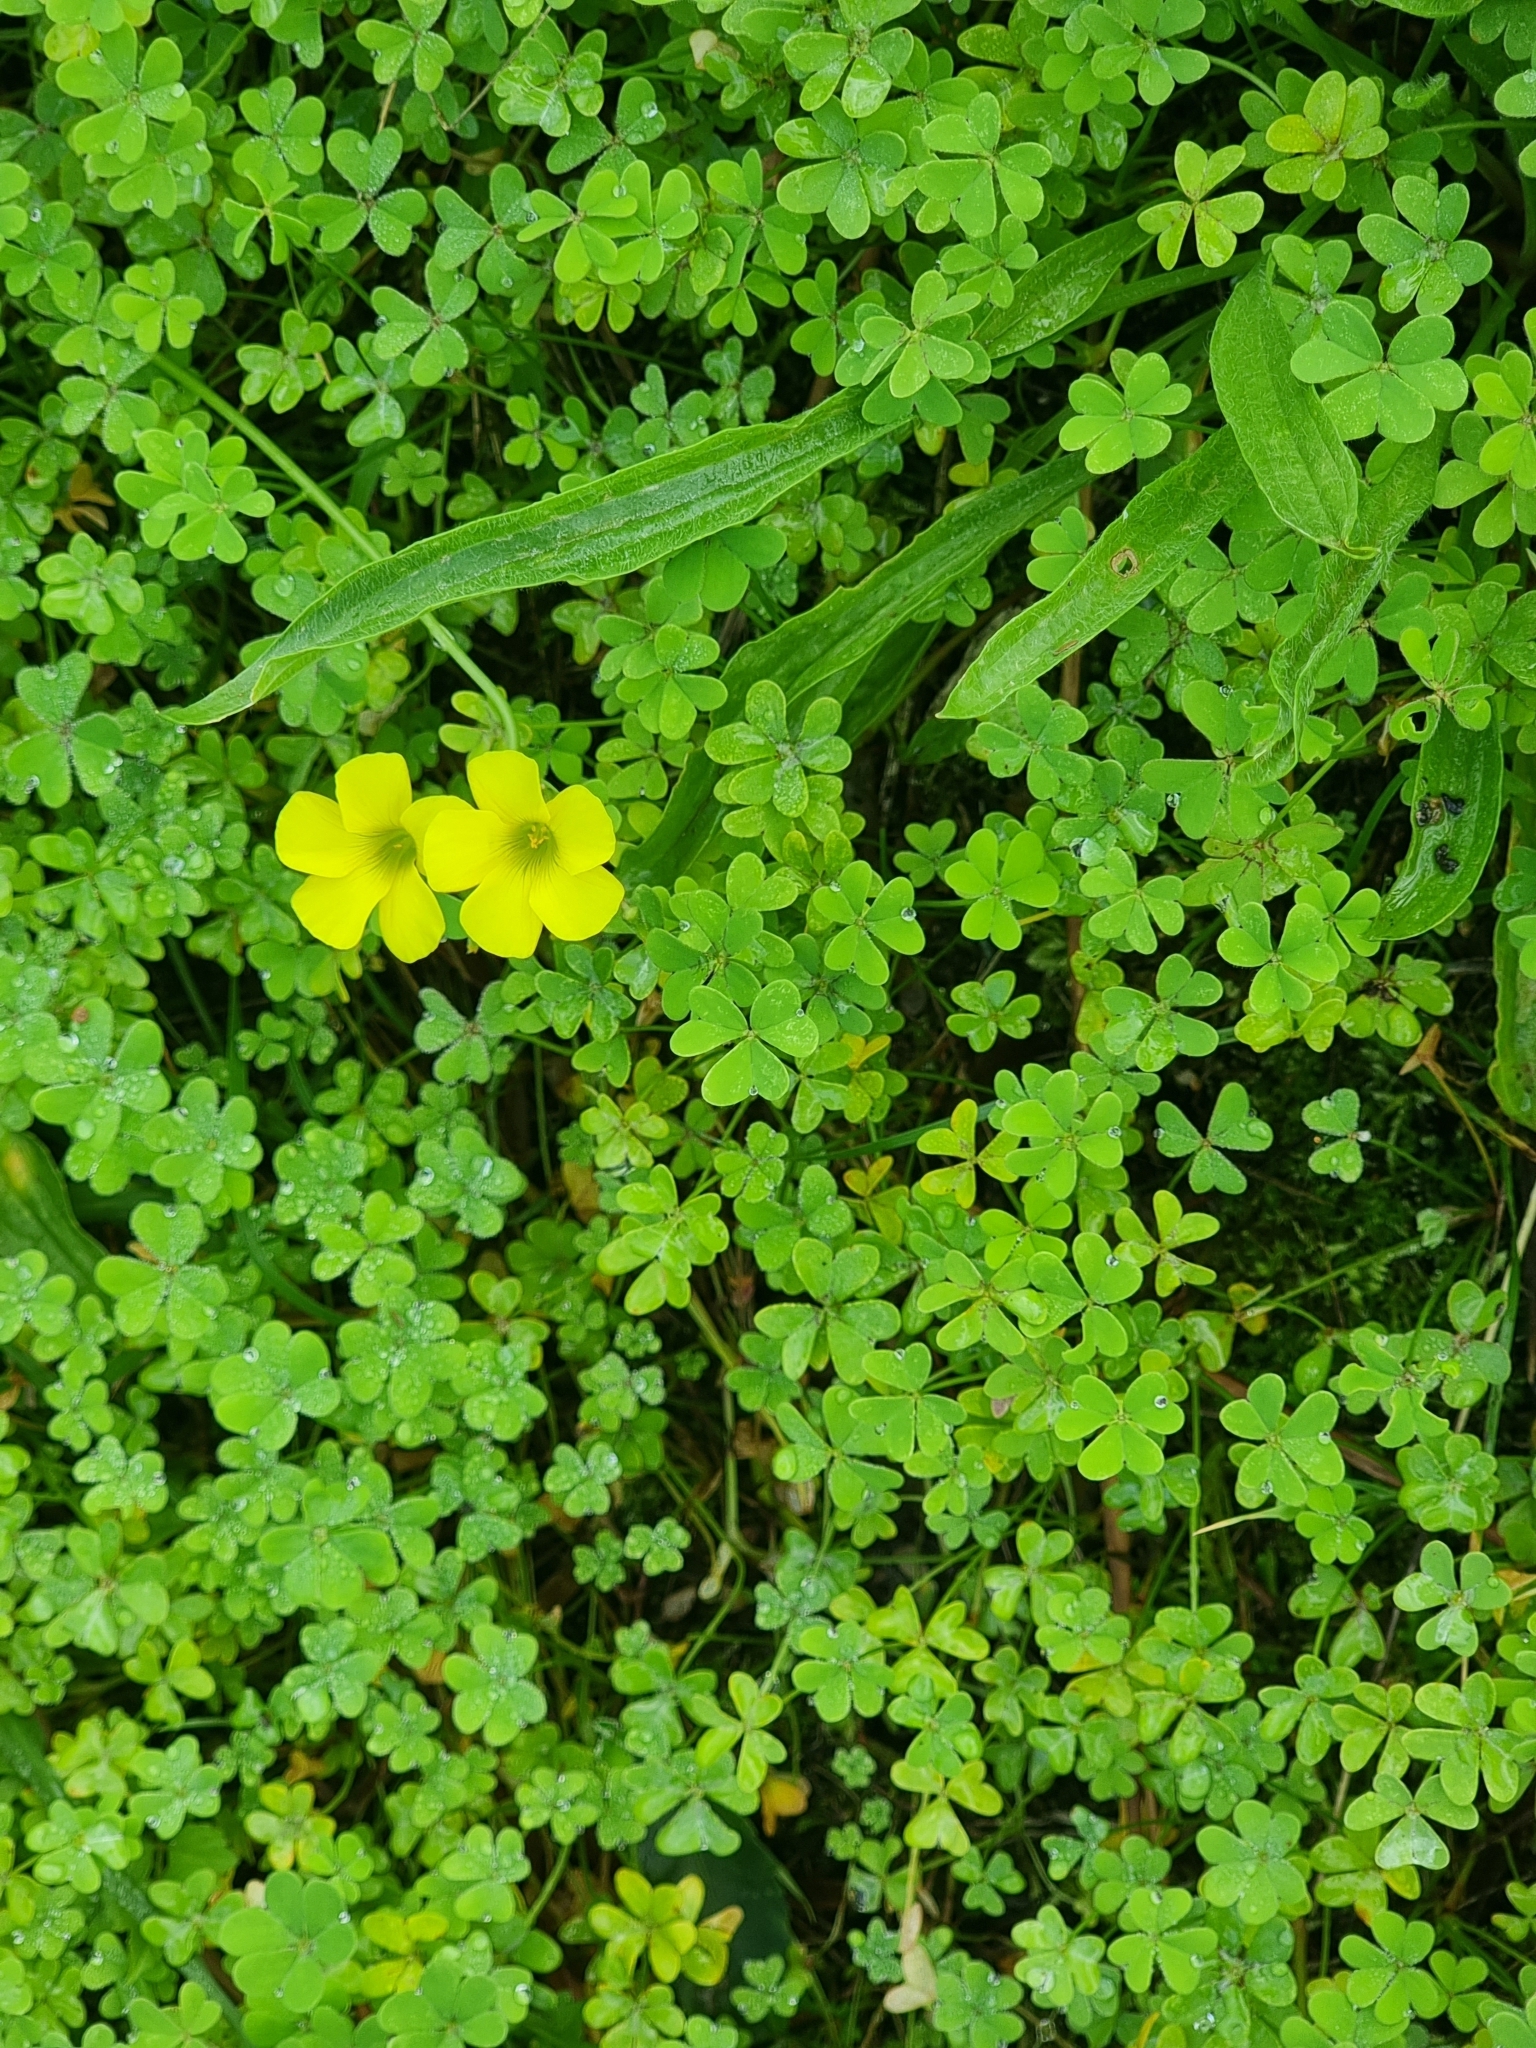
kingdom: Plantae
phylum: Tracheophyta
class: Magnoliopsida
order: Oxalidales
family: Oxalidaceae
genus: Oxalis
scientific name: Oxalis pes-caprae
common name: Bermuda-buttercup
